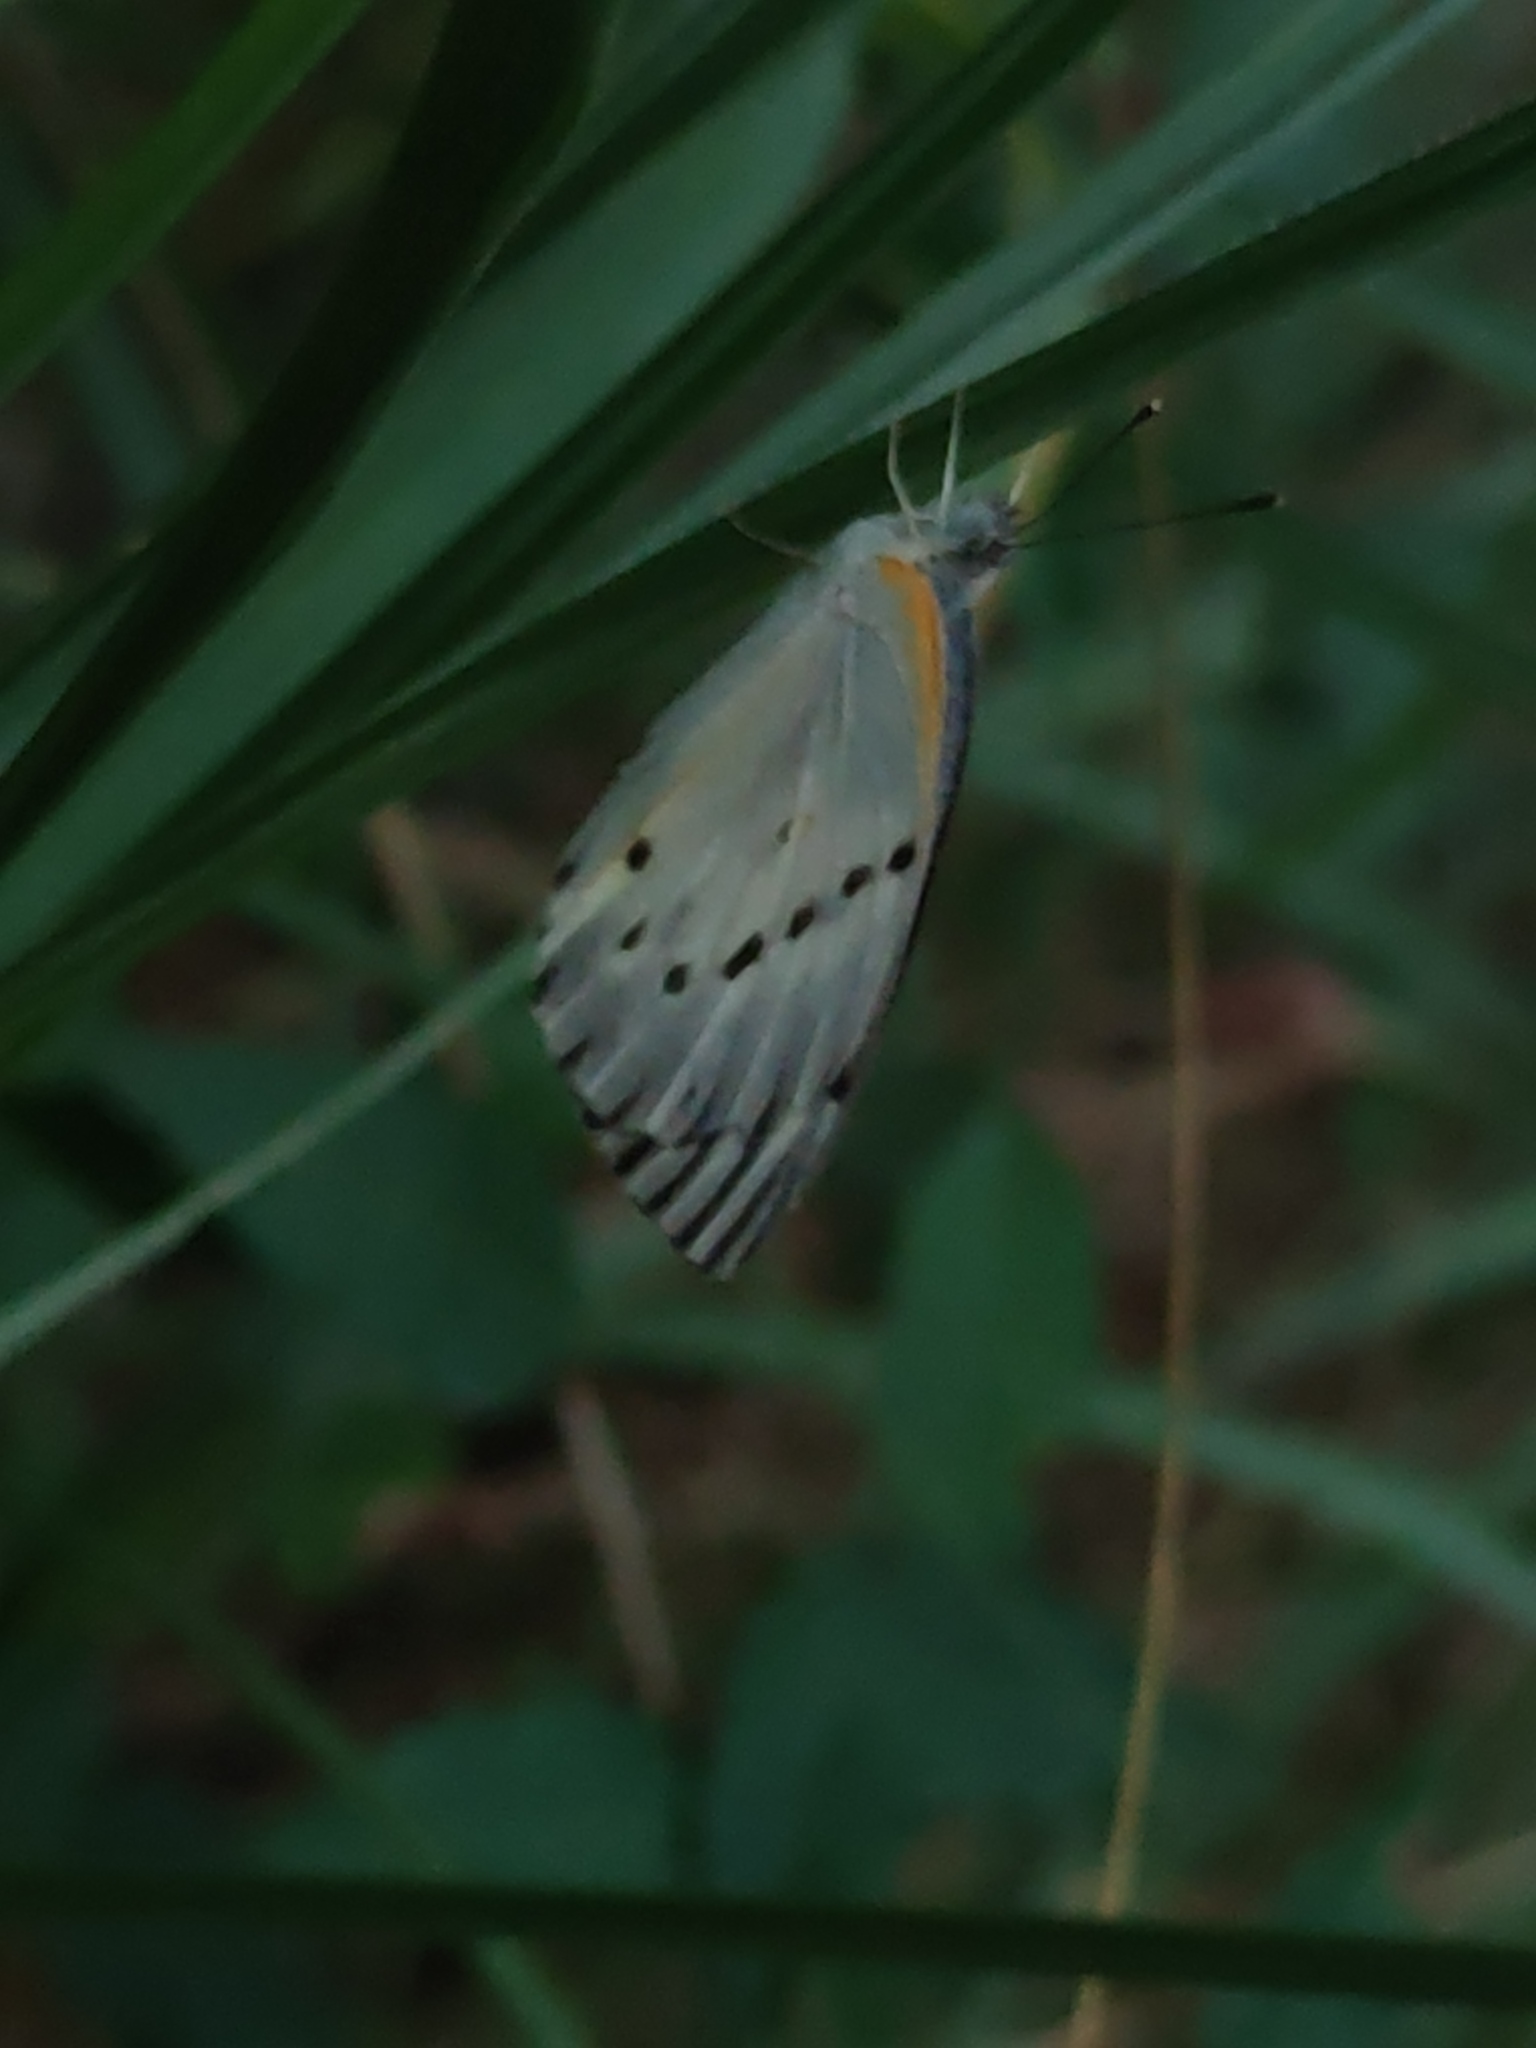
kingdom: Animalia
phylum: Arthropoda
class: Insecta
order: Lepidoptera
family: Pieridae
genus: Colotis
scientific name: Colotis regina
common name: Queen purple tip
